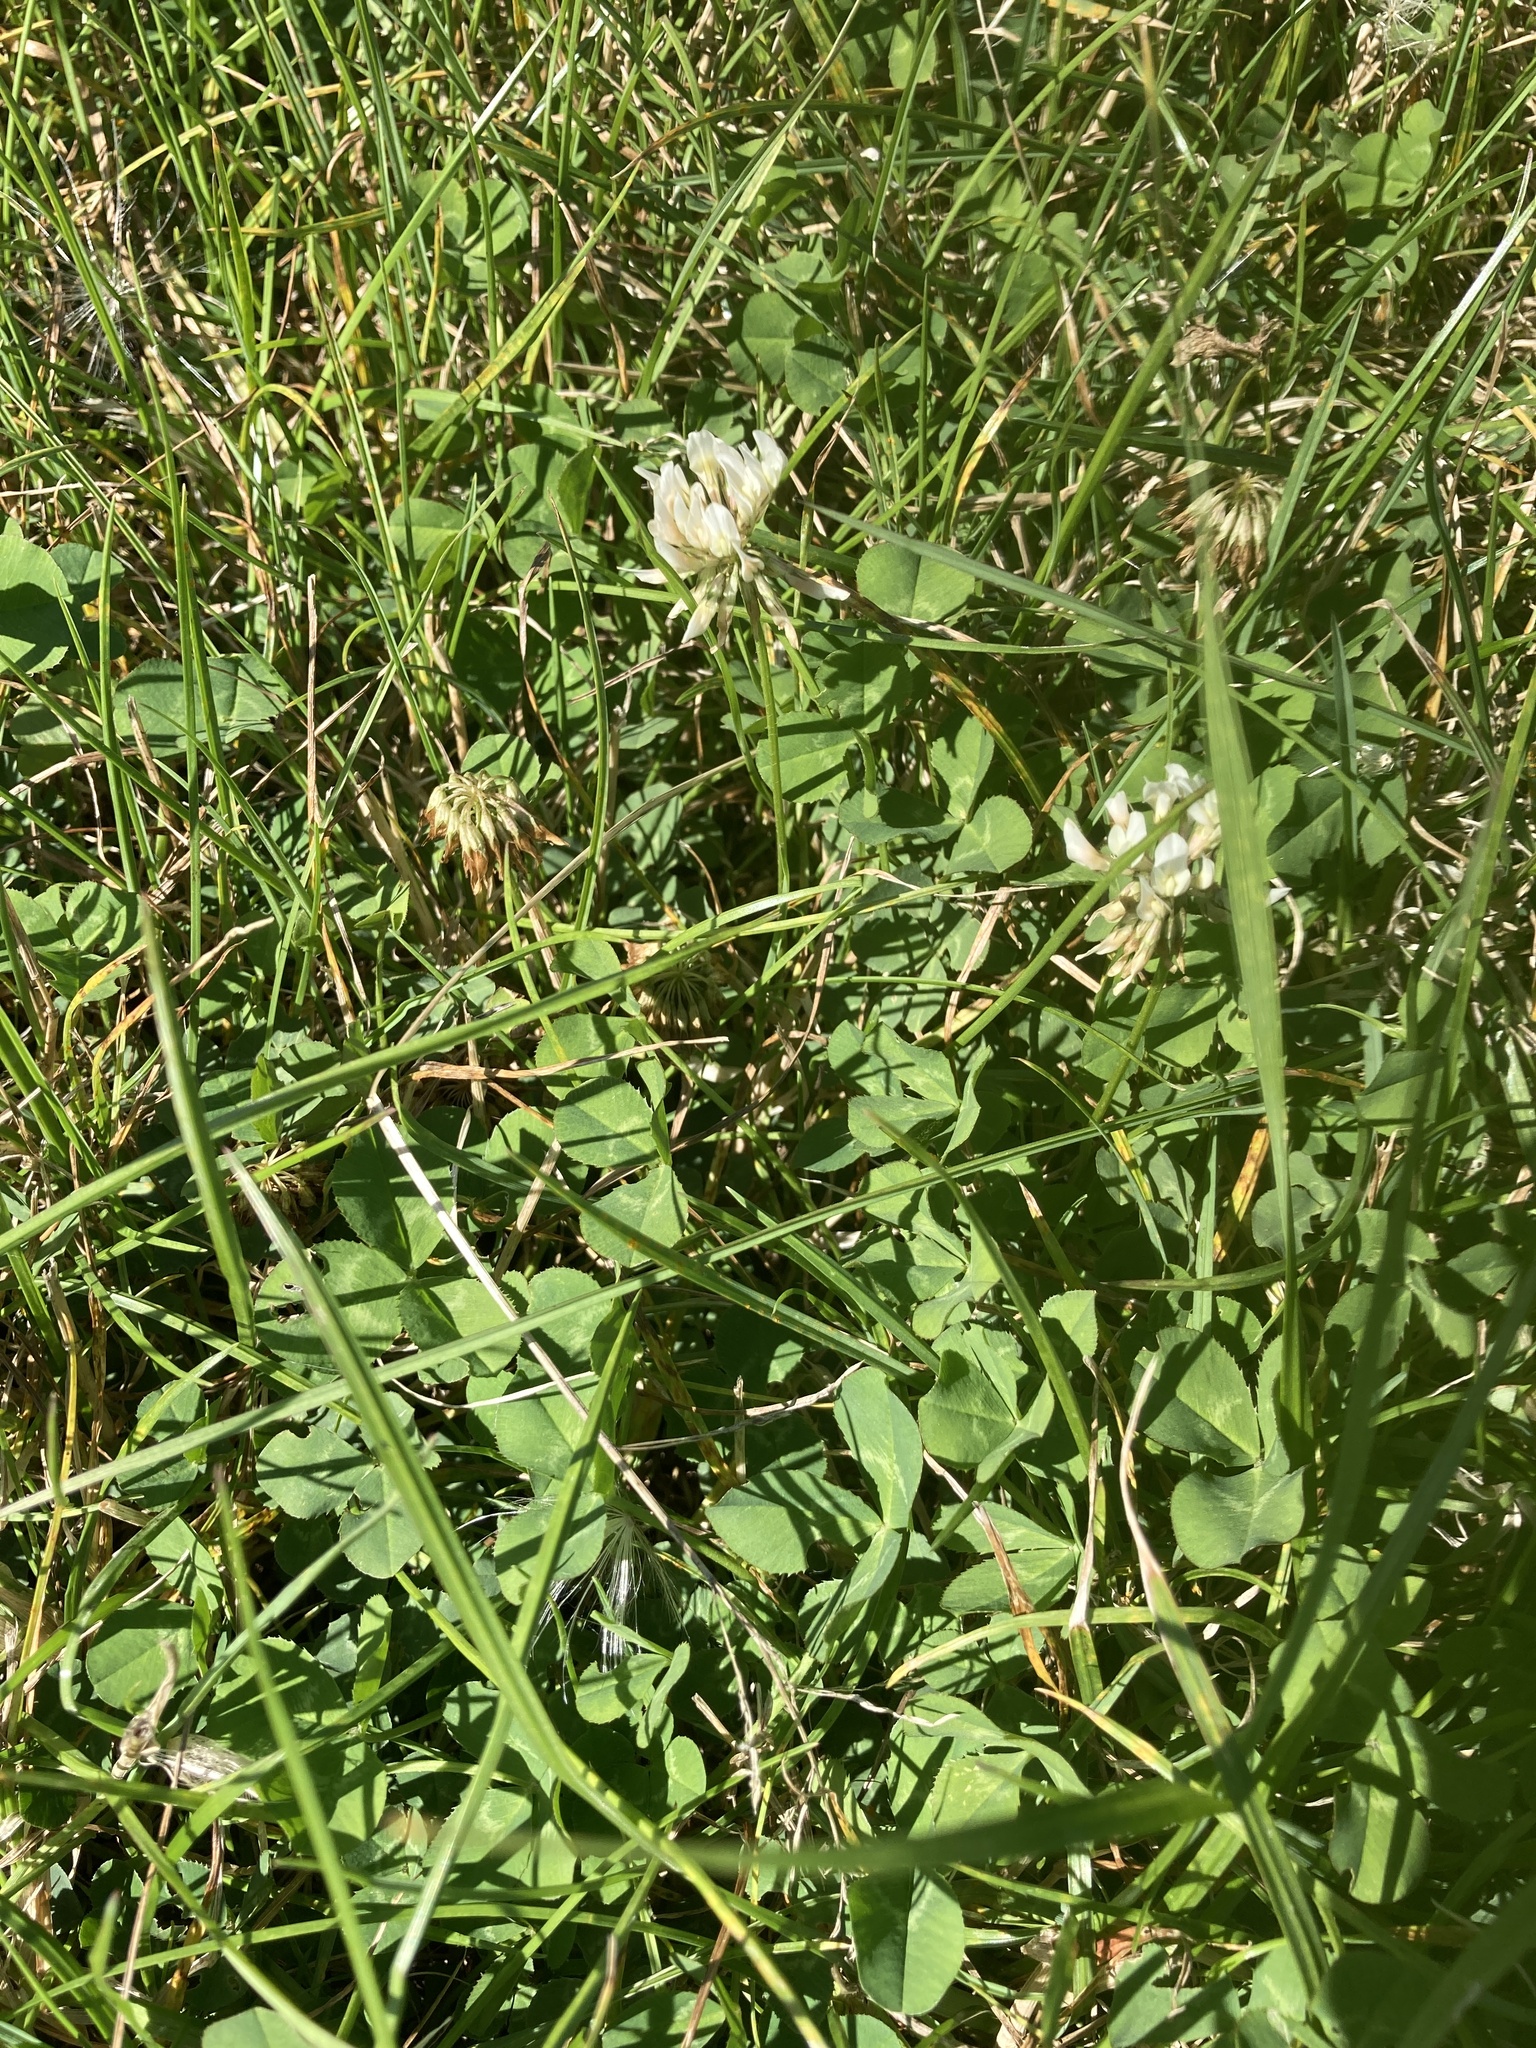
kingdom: Plantae
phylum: Tracheophyta
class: Magnoliopsida
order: Fabales
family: Fabaceae
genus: Trifolium
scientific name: Trifolium repens
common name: White clover
